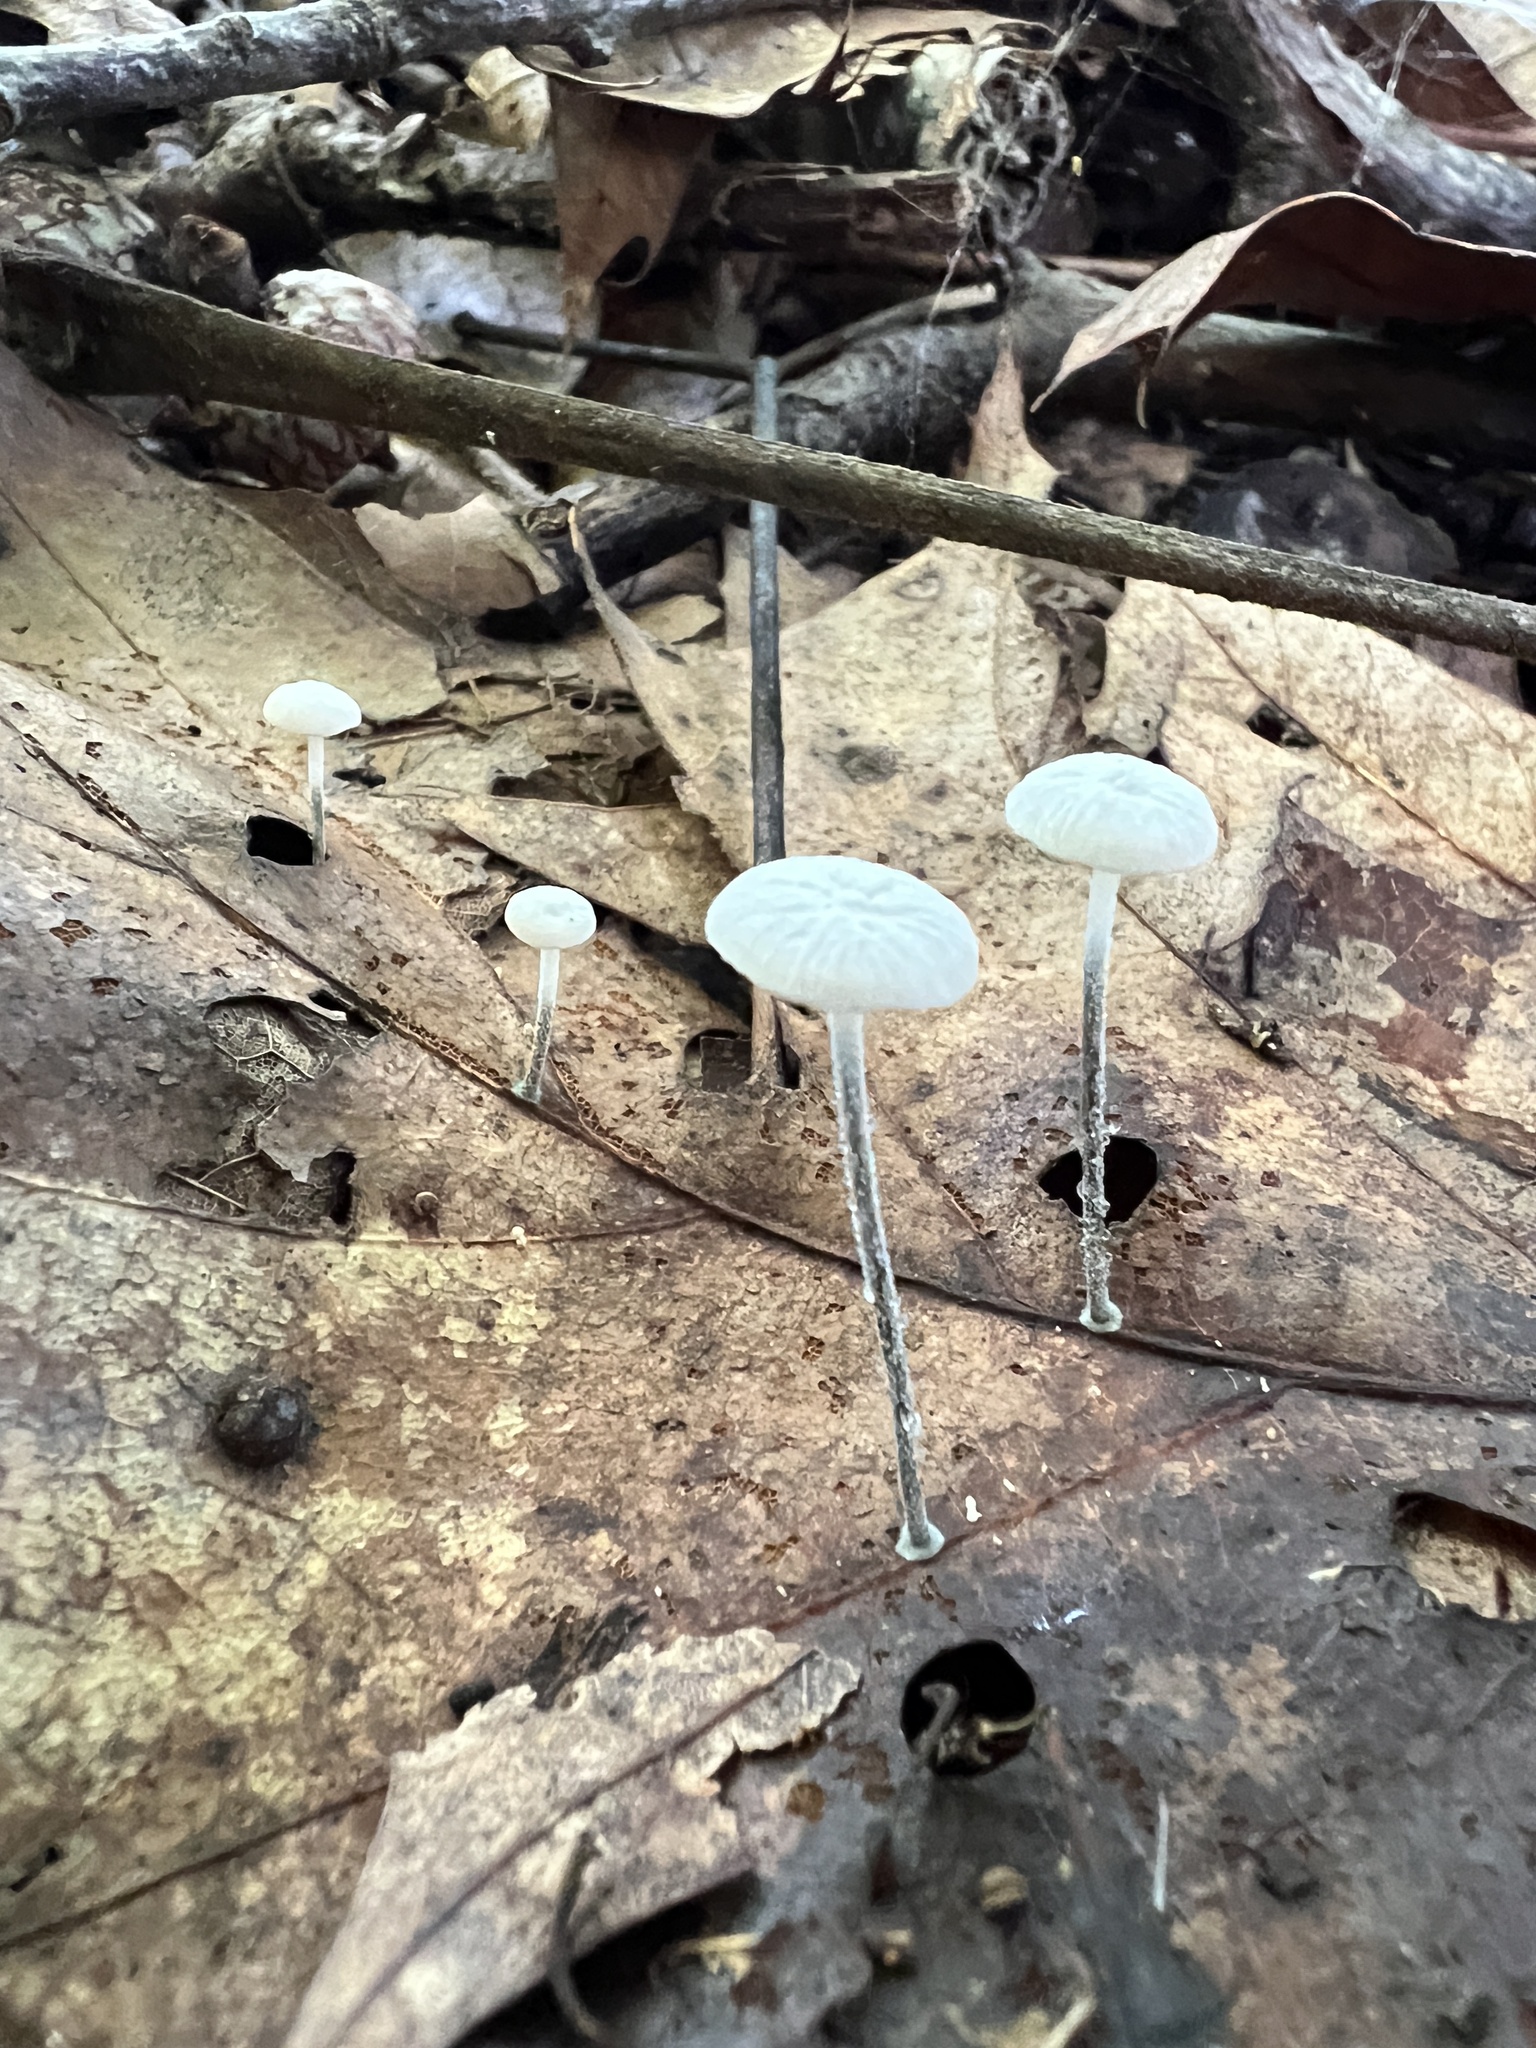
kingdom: Fungi
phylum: Basidiomycota
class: Agaricomycetes
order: Agaricales
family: Marasmiaceae
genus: Tetrapyrgos
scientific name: Tetrapyrgos nigripes
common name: Black-stalked marasmius
